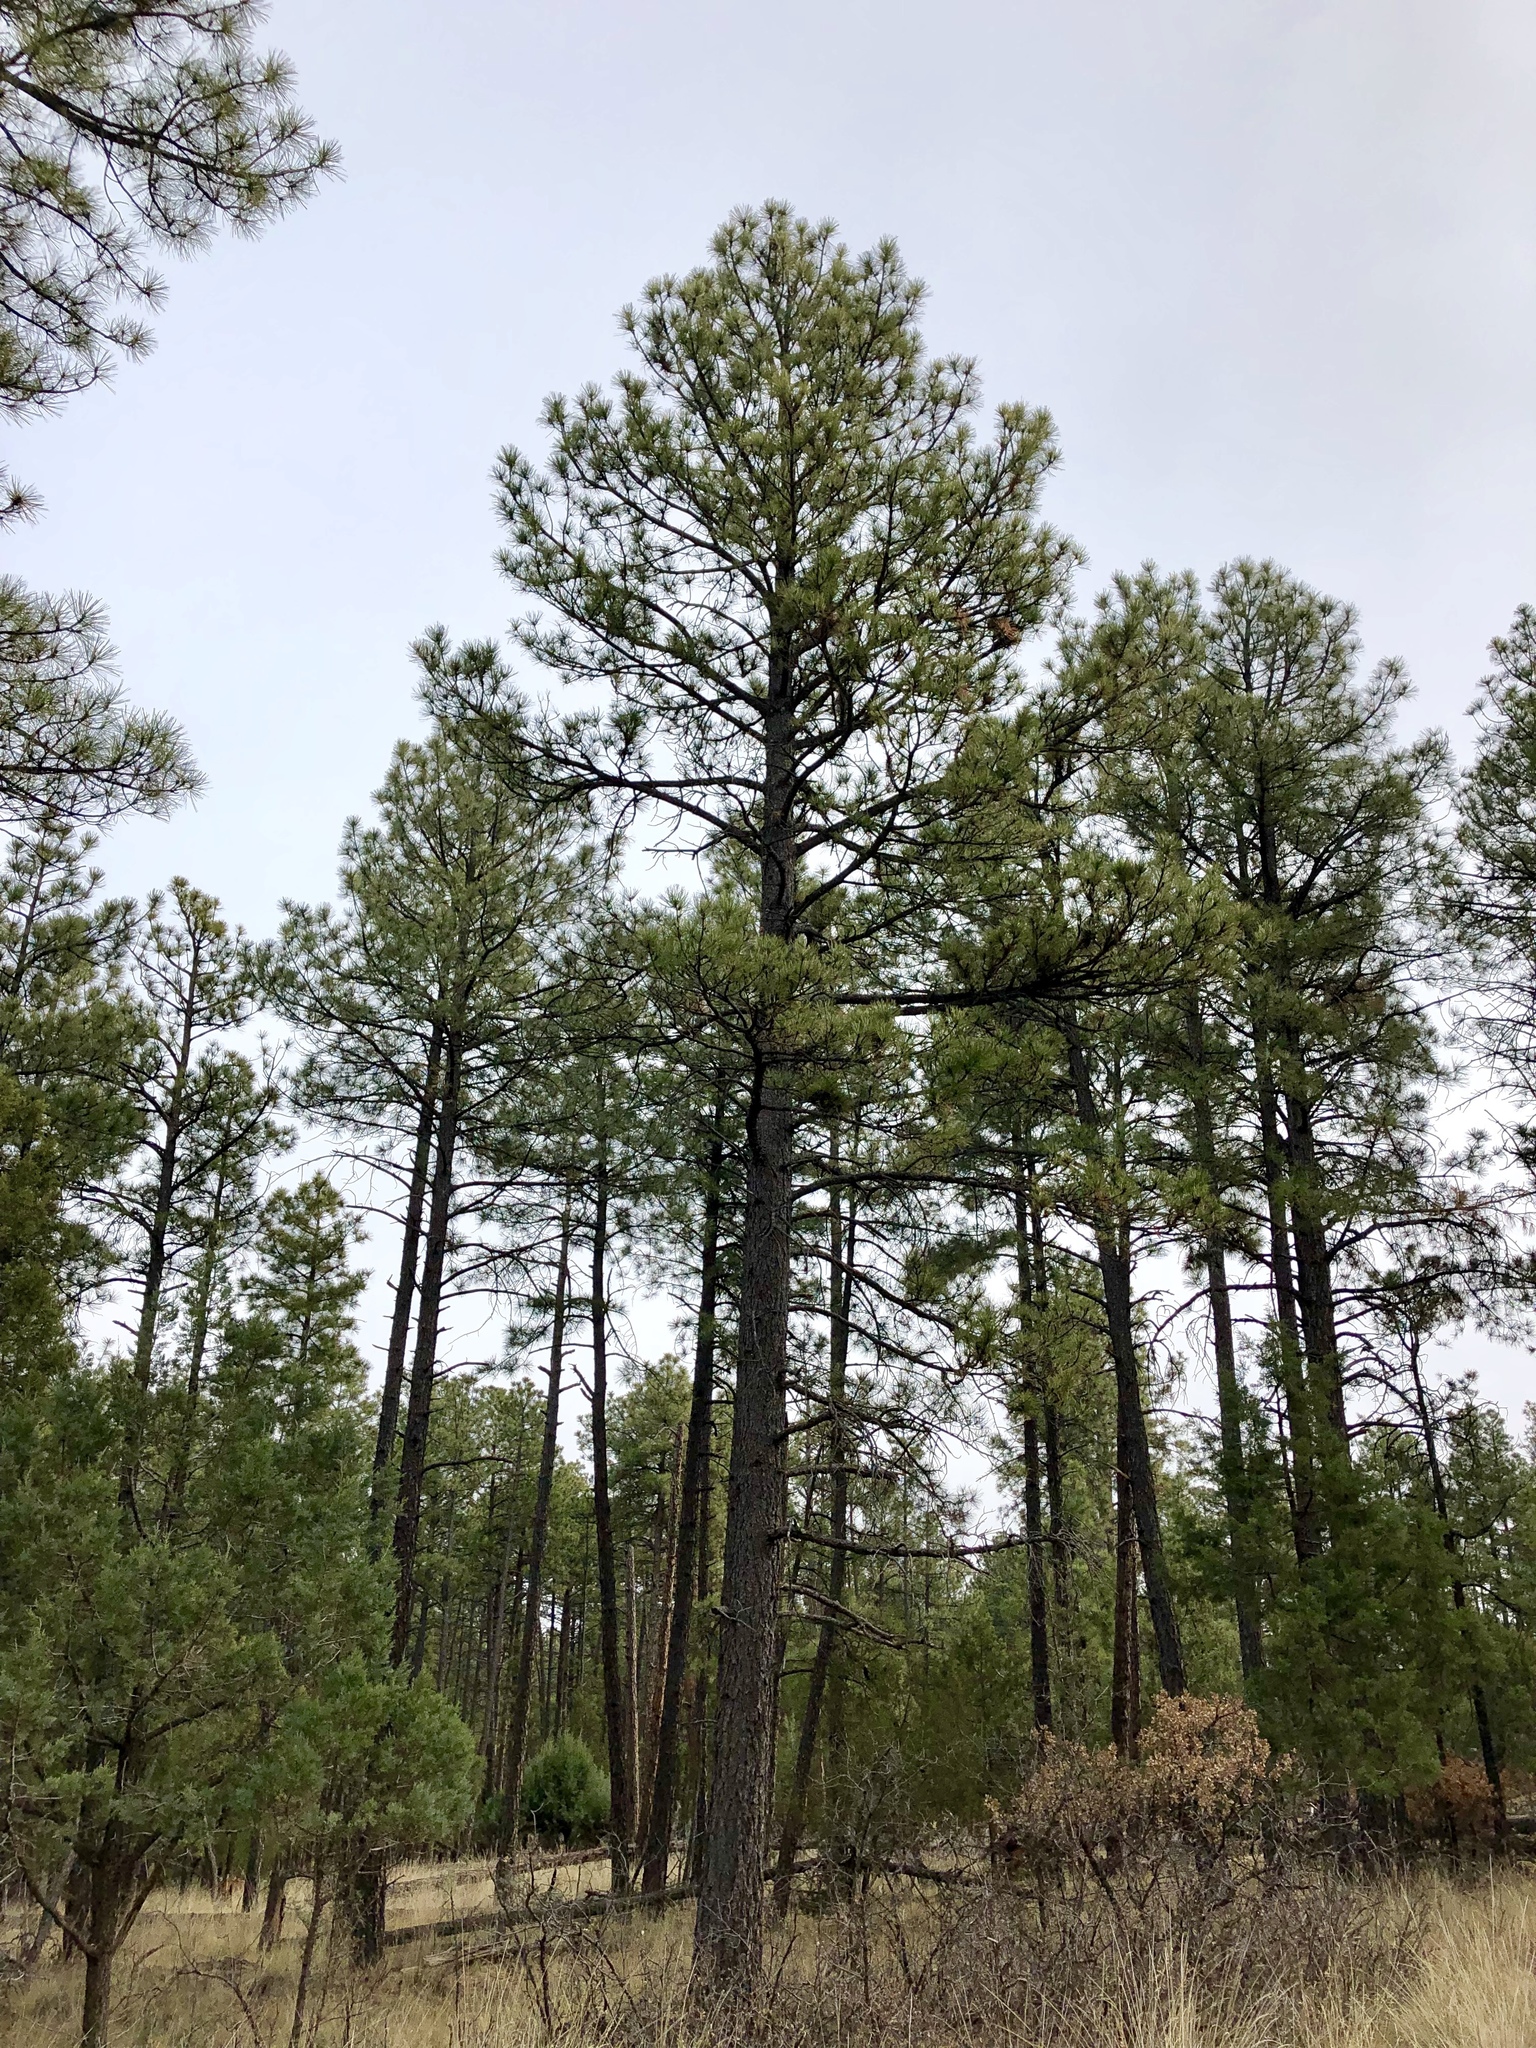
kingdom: Plantae
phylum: Tracheophyta
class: Pinopsida
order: Pinales
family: Pinaceae
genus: Pinus
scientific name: Pinus ponderosa
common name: Western yellow-pine
